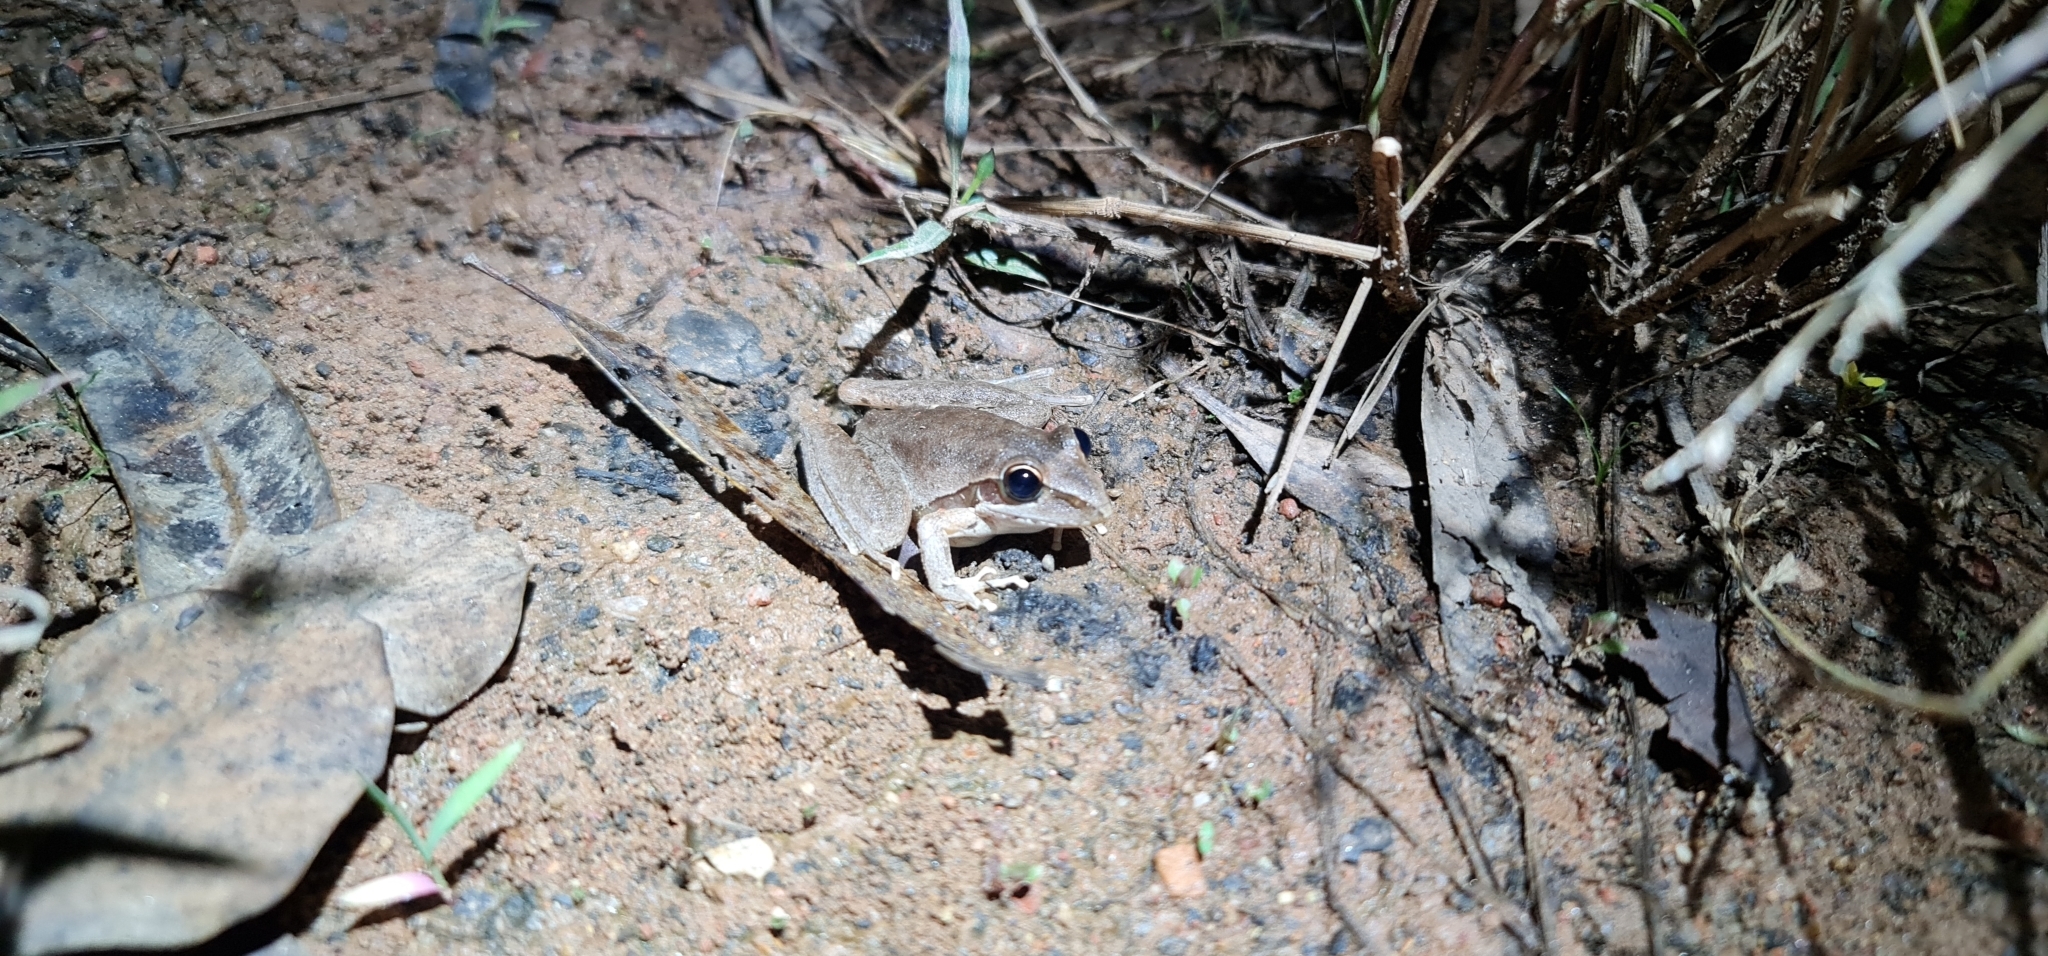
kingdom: Animalia
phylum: Chordata
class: Amphibia
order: Anura
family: Pelodryadidae
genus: Litoria
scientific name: Litoria watjulumensis
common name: Wotjulum frog
